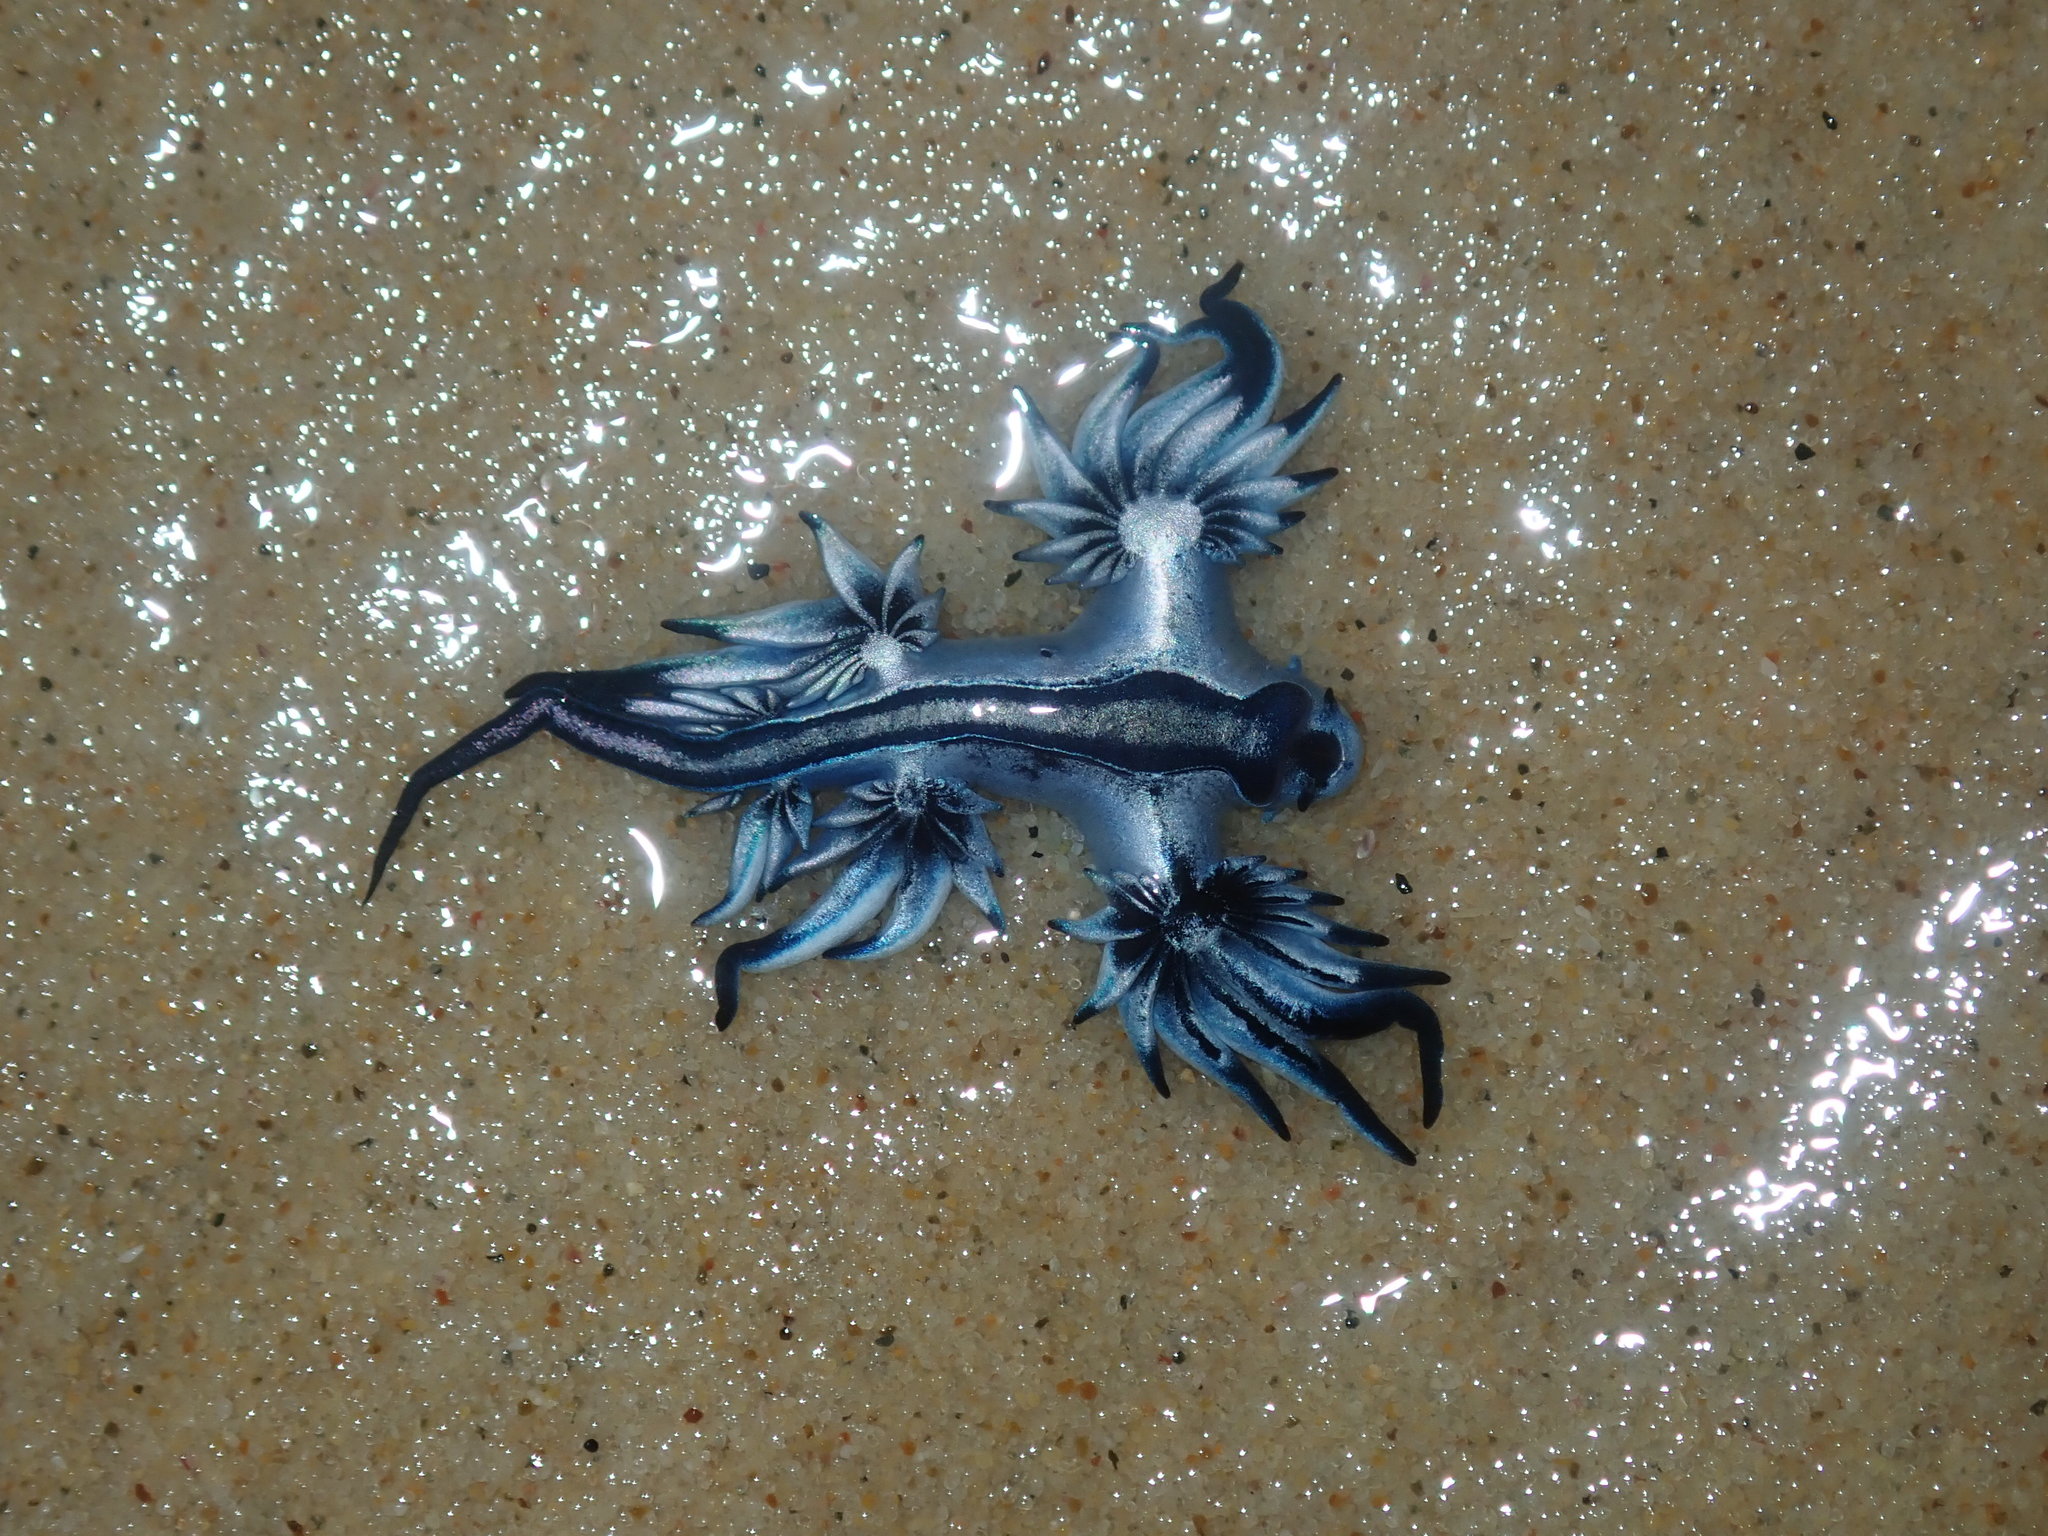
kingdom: Animalia
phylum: Mollusca
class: Gastropoda
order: Nudibranchia
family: Glaucidae
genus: Glaucus
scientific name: Glaucus atlanticus
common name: Purple ocean slug
